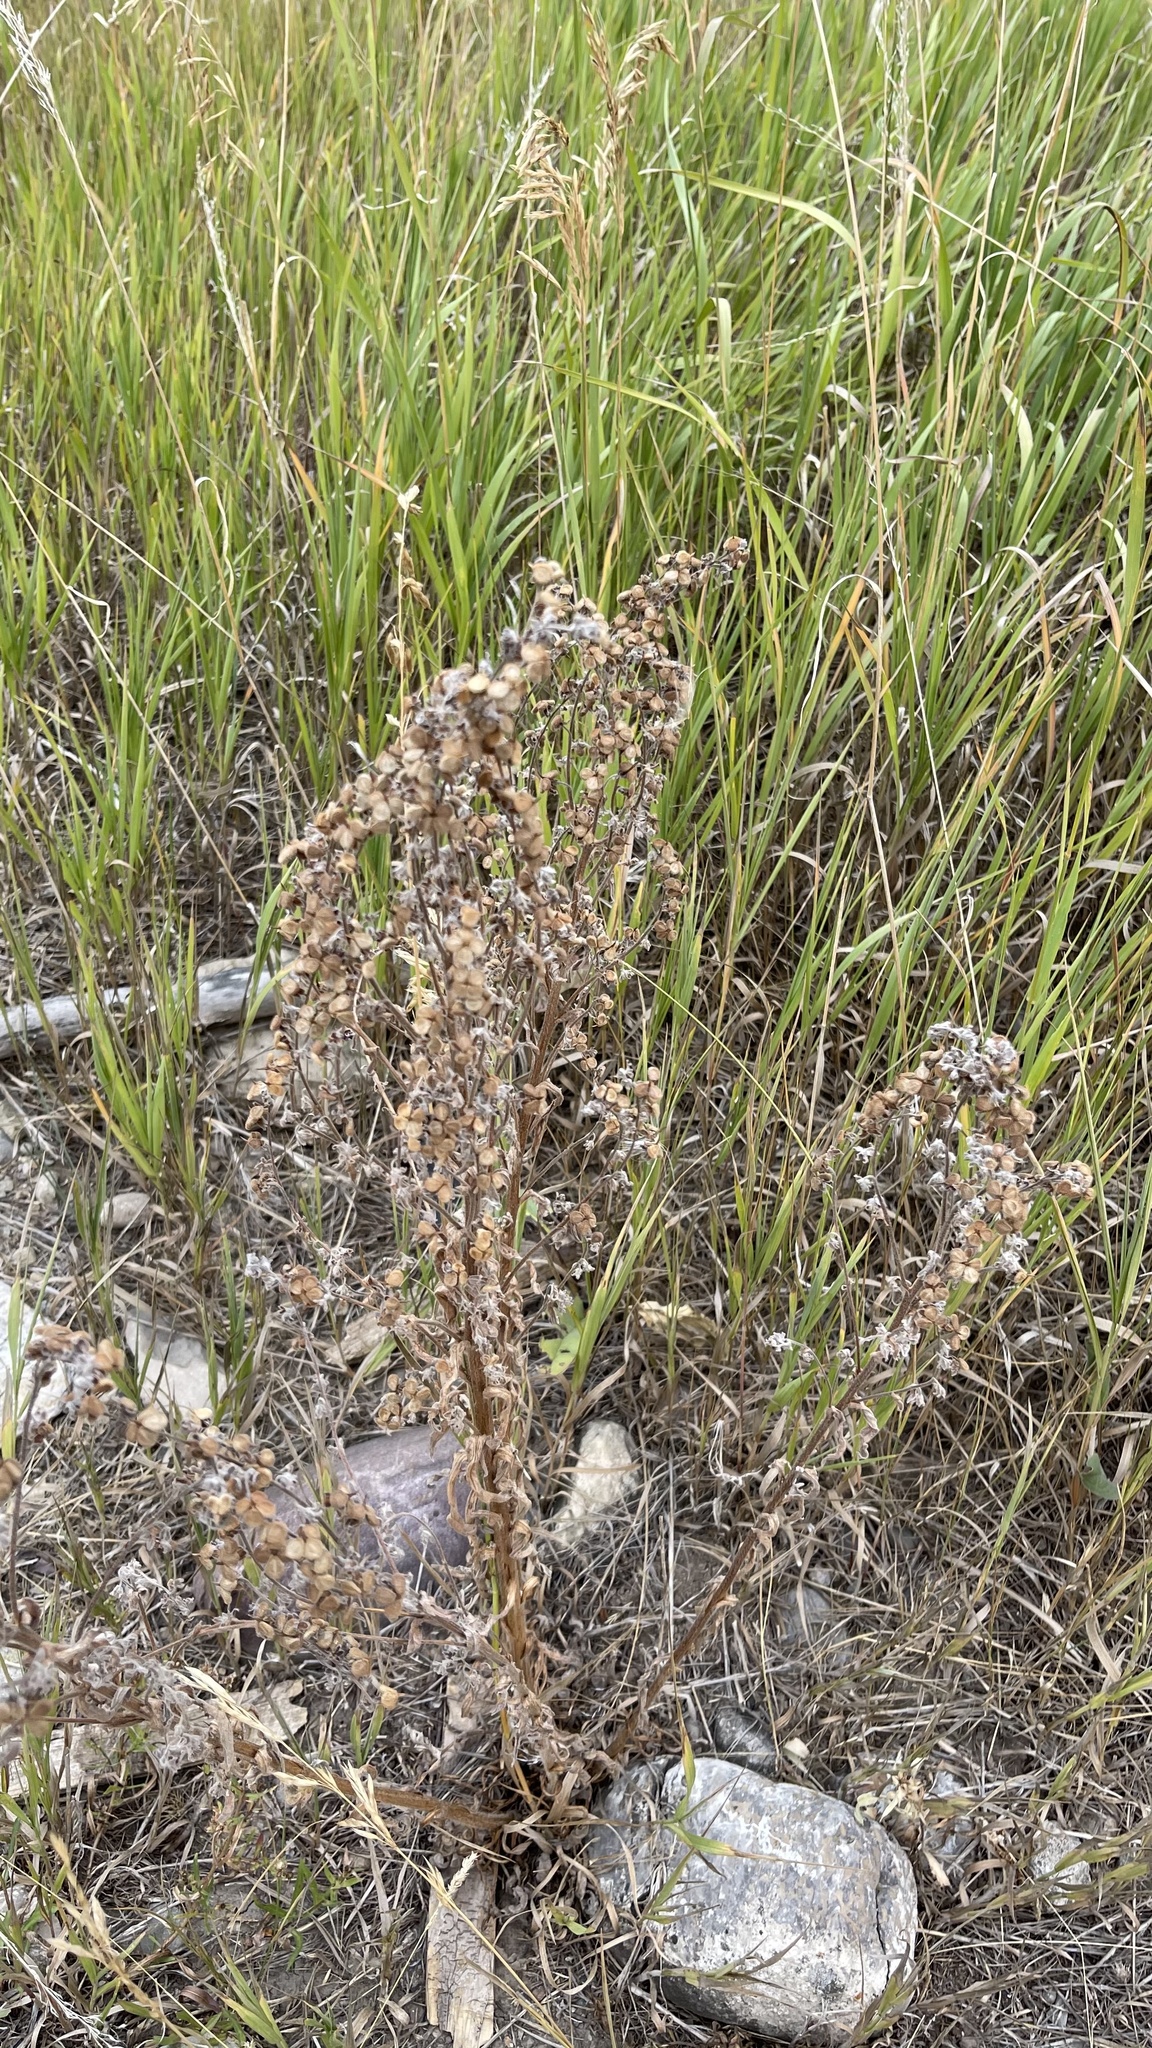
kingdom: Plantae
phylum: Tracheophyta
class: Magnoliopsida
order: Boraginales
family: Boraginaceae
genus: Cynoglossum
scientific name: Cynoglossum officinale
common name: Hound's-tongue
